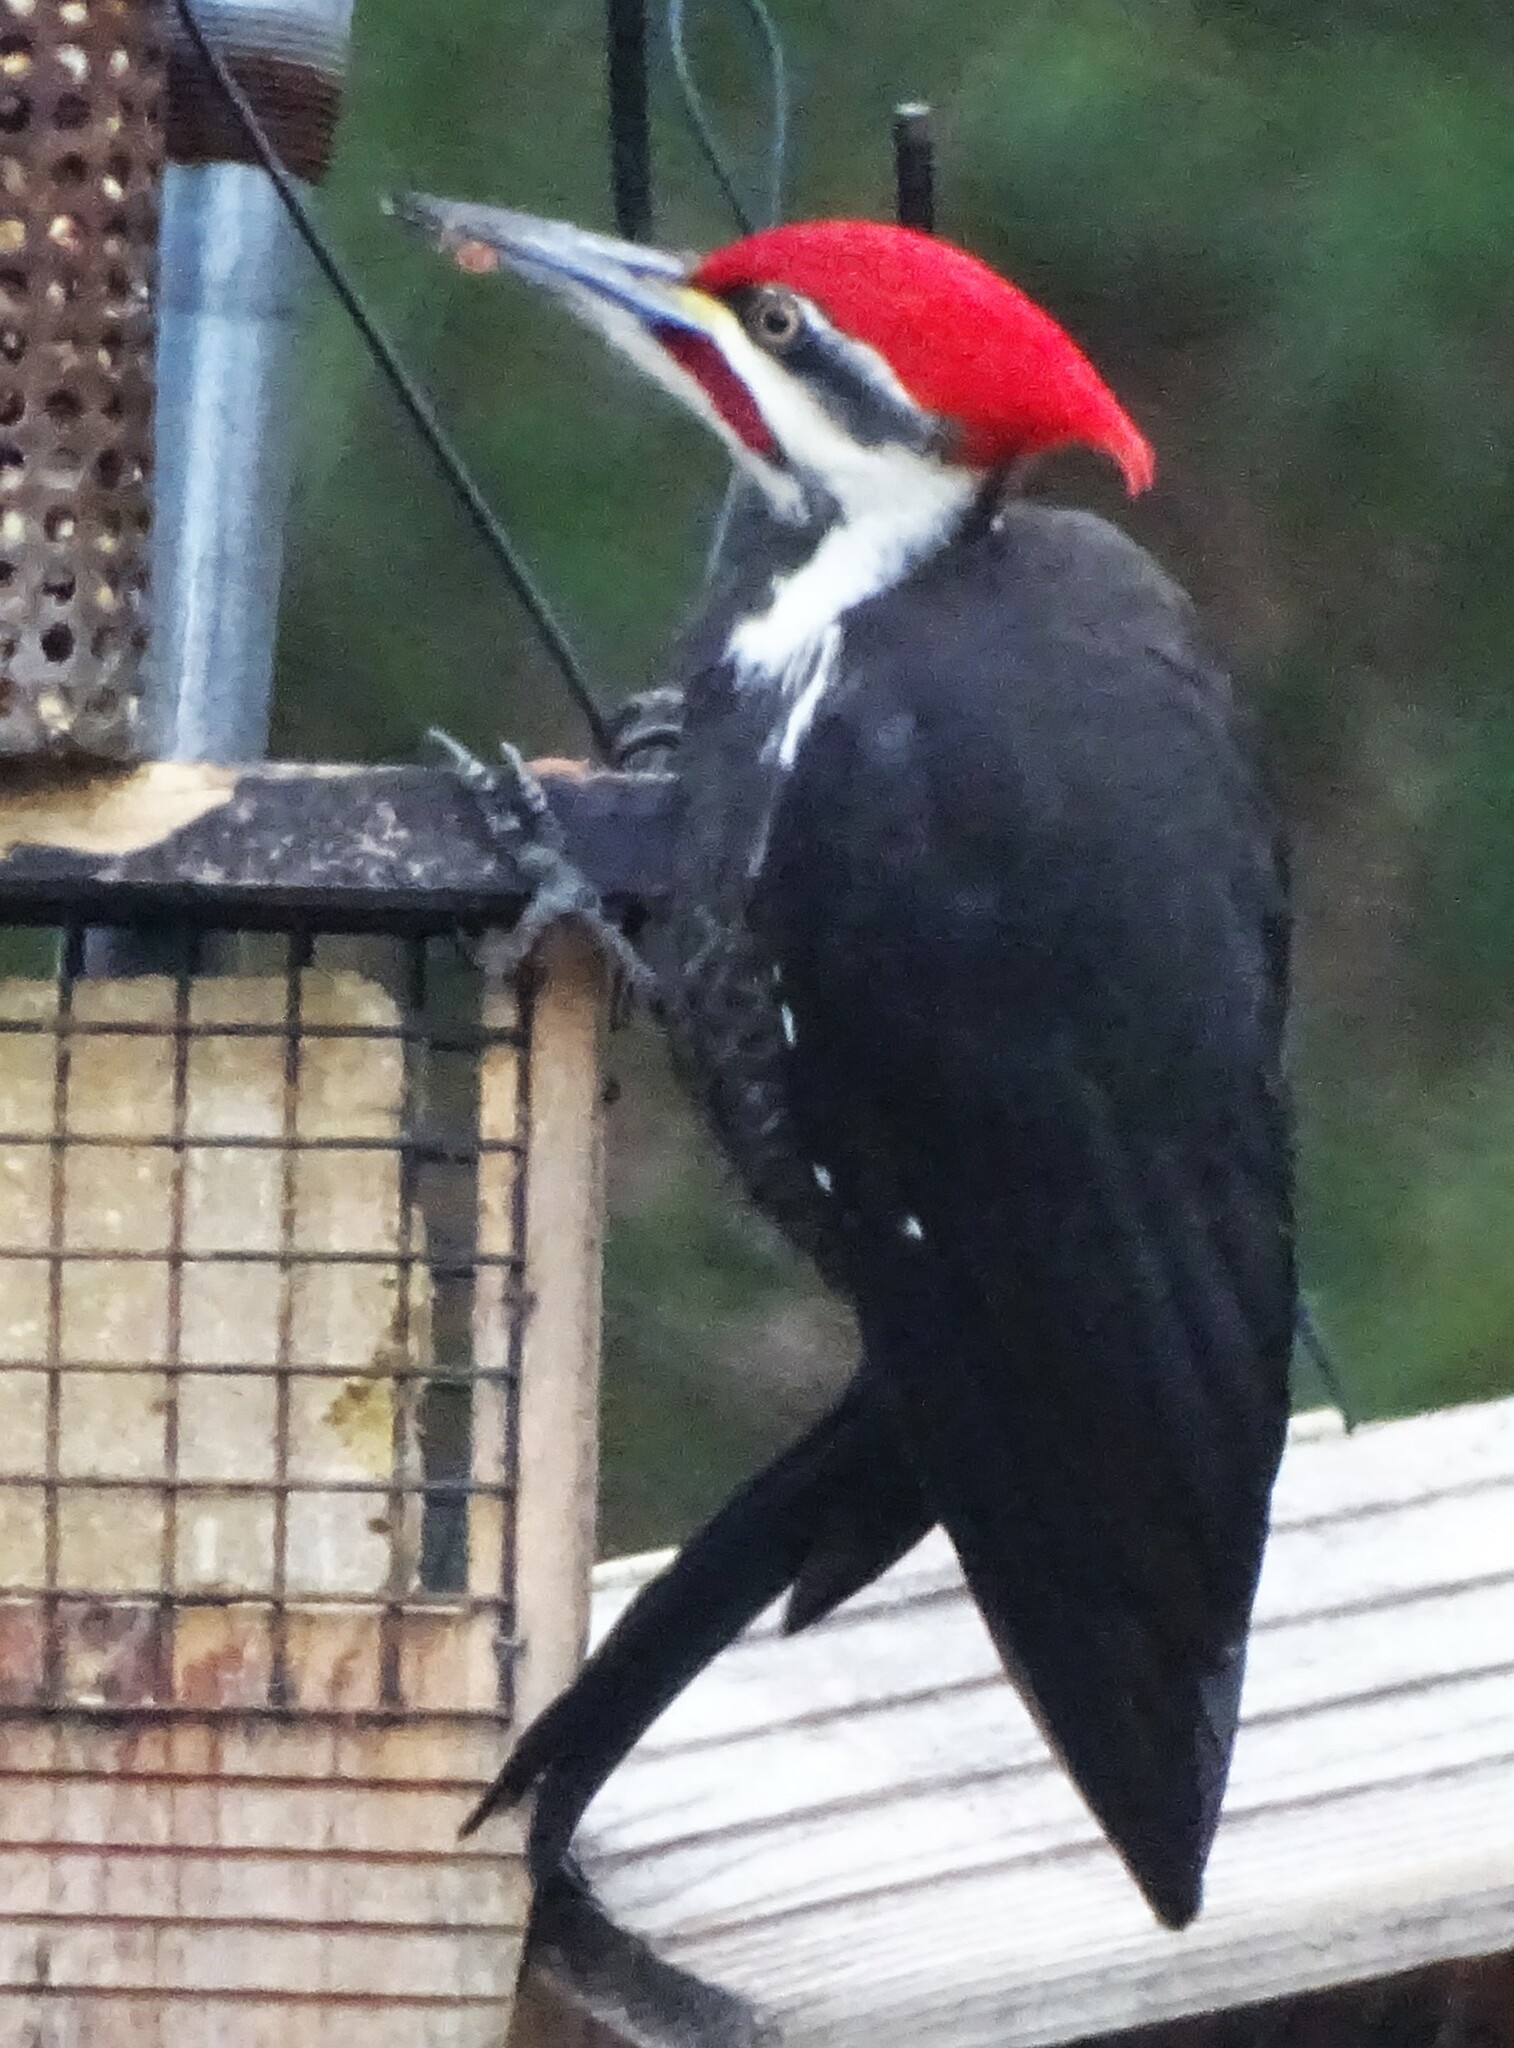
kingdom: Animalia
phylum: Chordata
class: Aves
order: Piciformes
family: Picidae
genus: Dryocopus
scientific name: Dryocopus pileatus
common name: Pileated woodpecker
